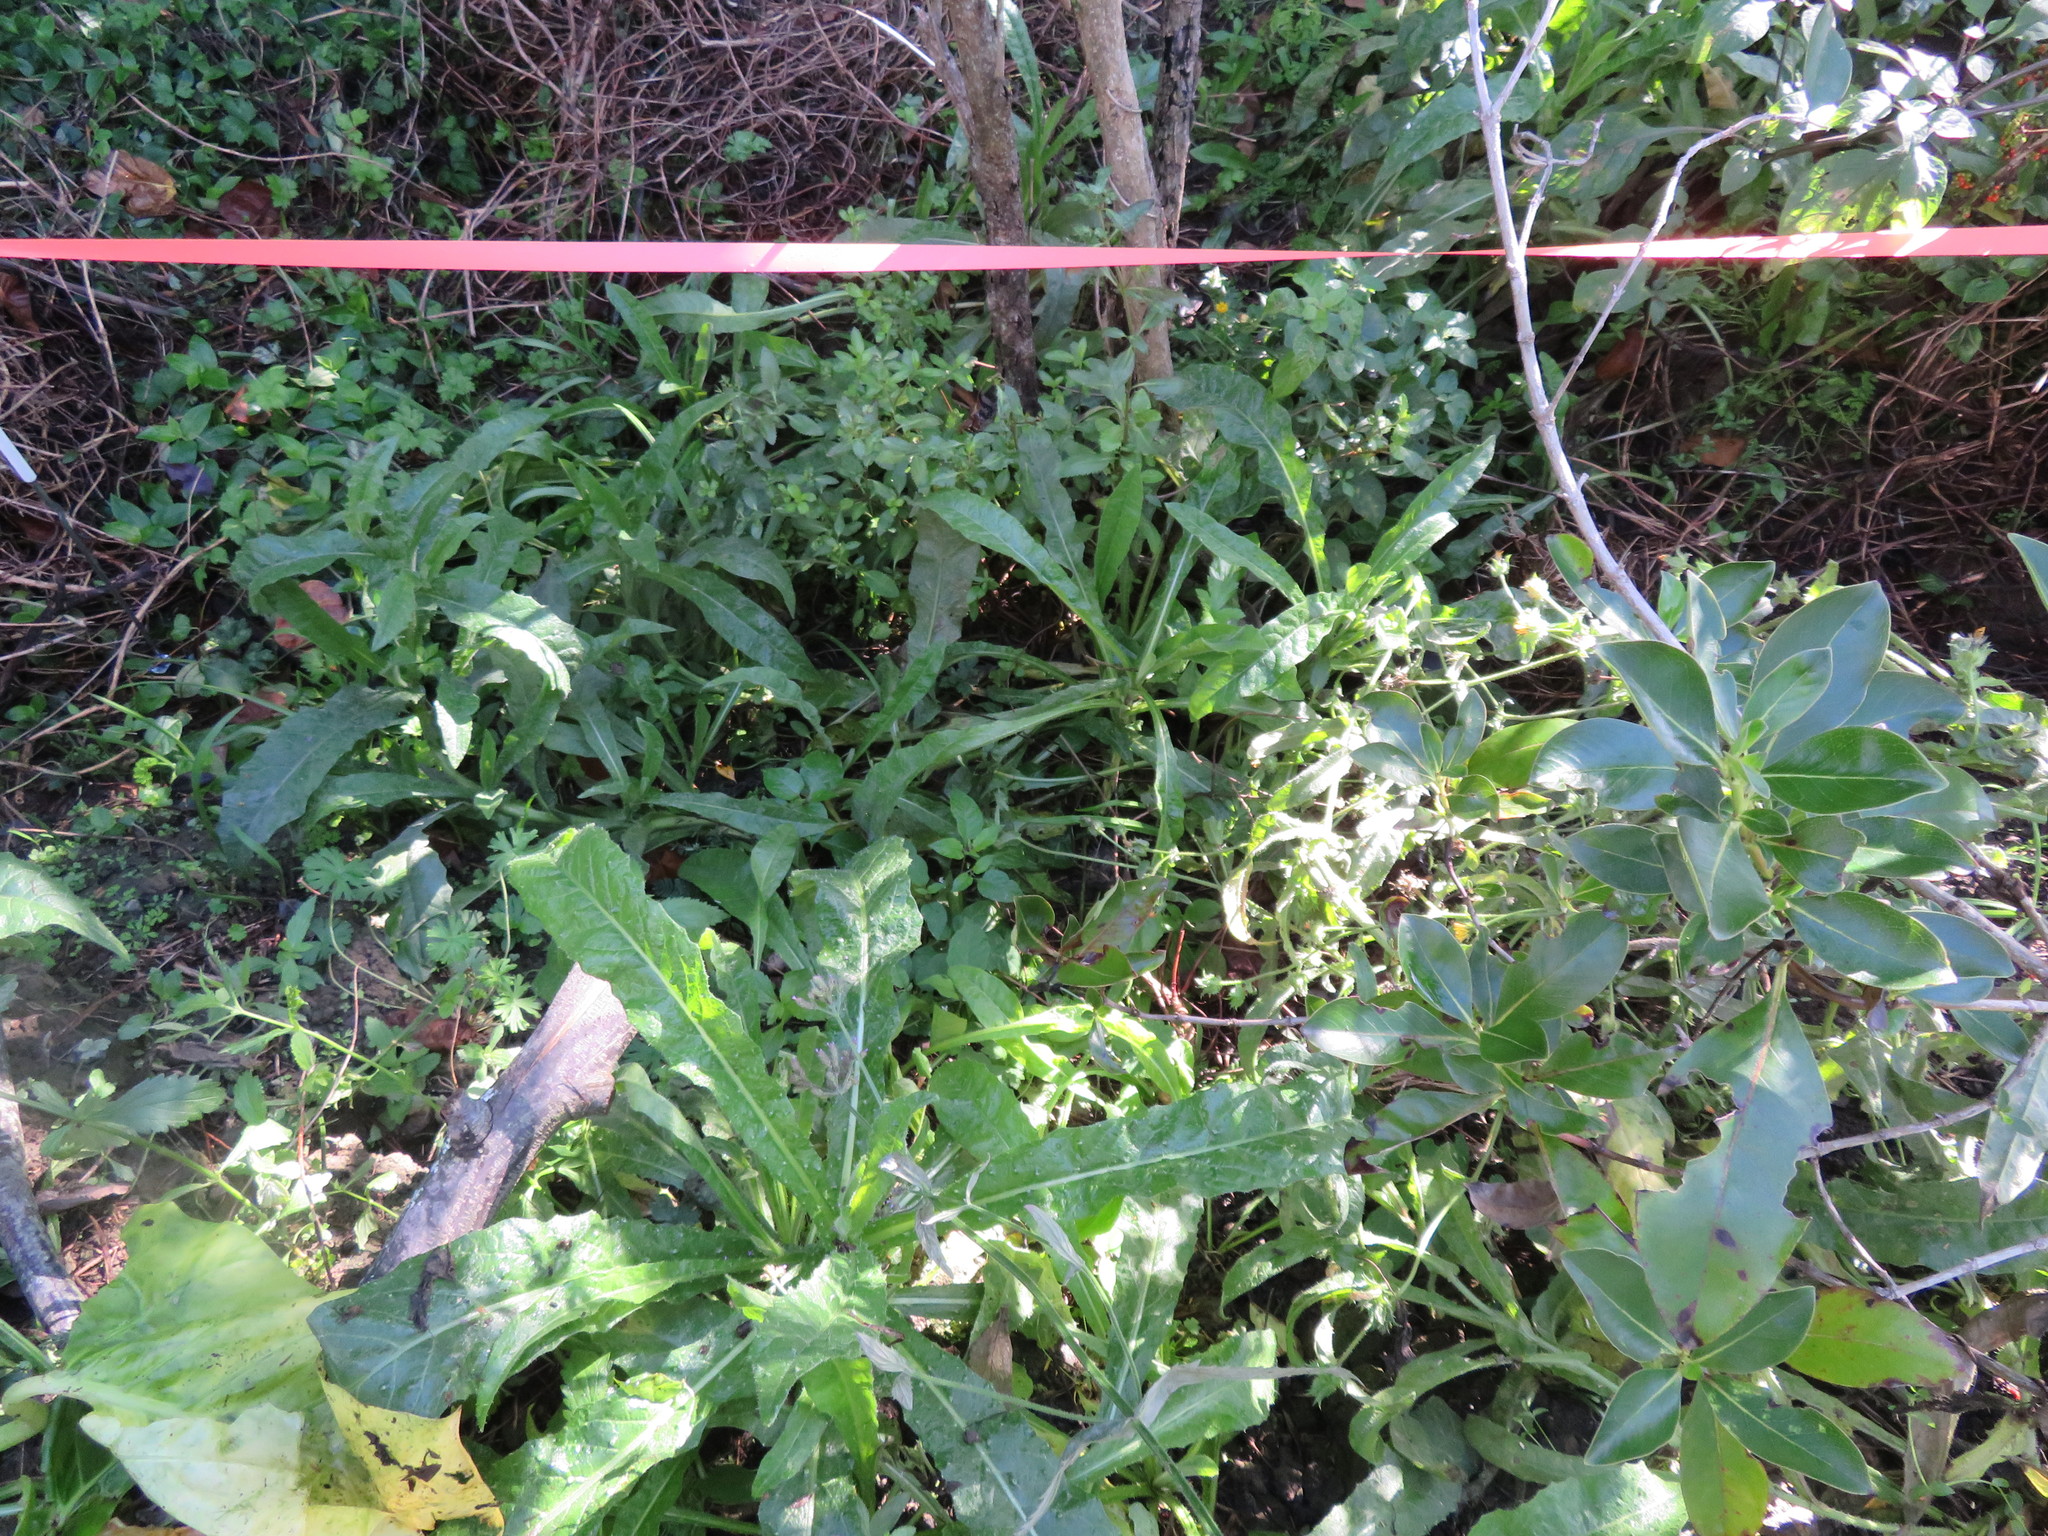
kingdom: Plantae
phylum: Tracheophyta
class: Magnoliopsida
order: Gentianales
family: Rubiaceae
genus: Coprosma
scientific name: Coprosma robusta
